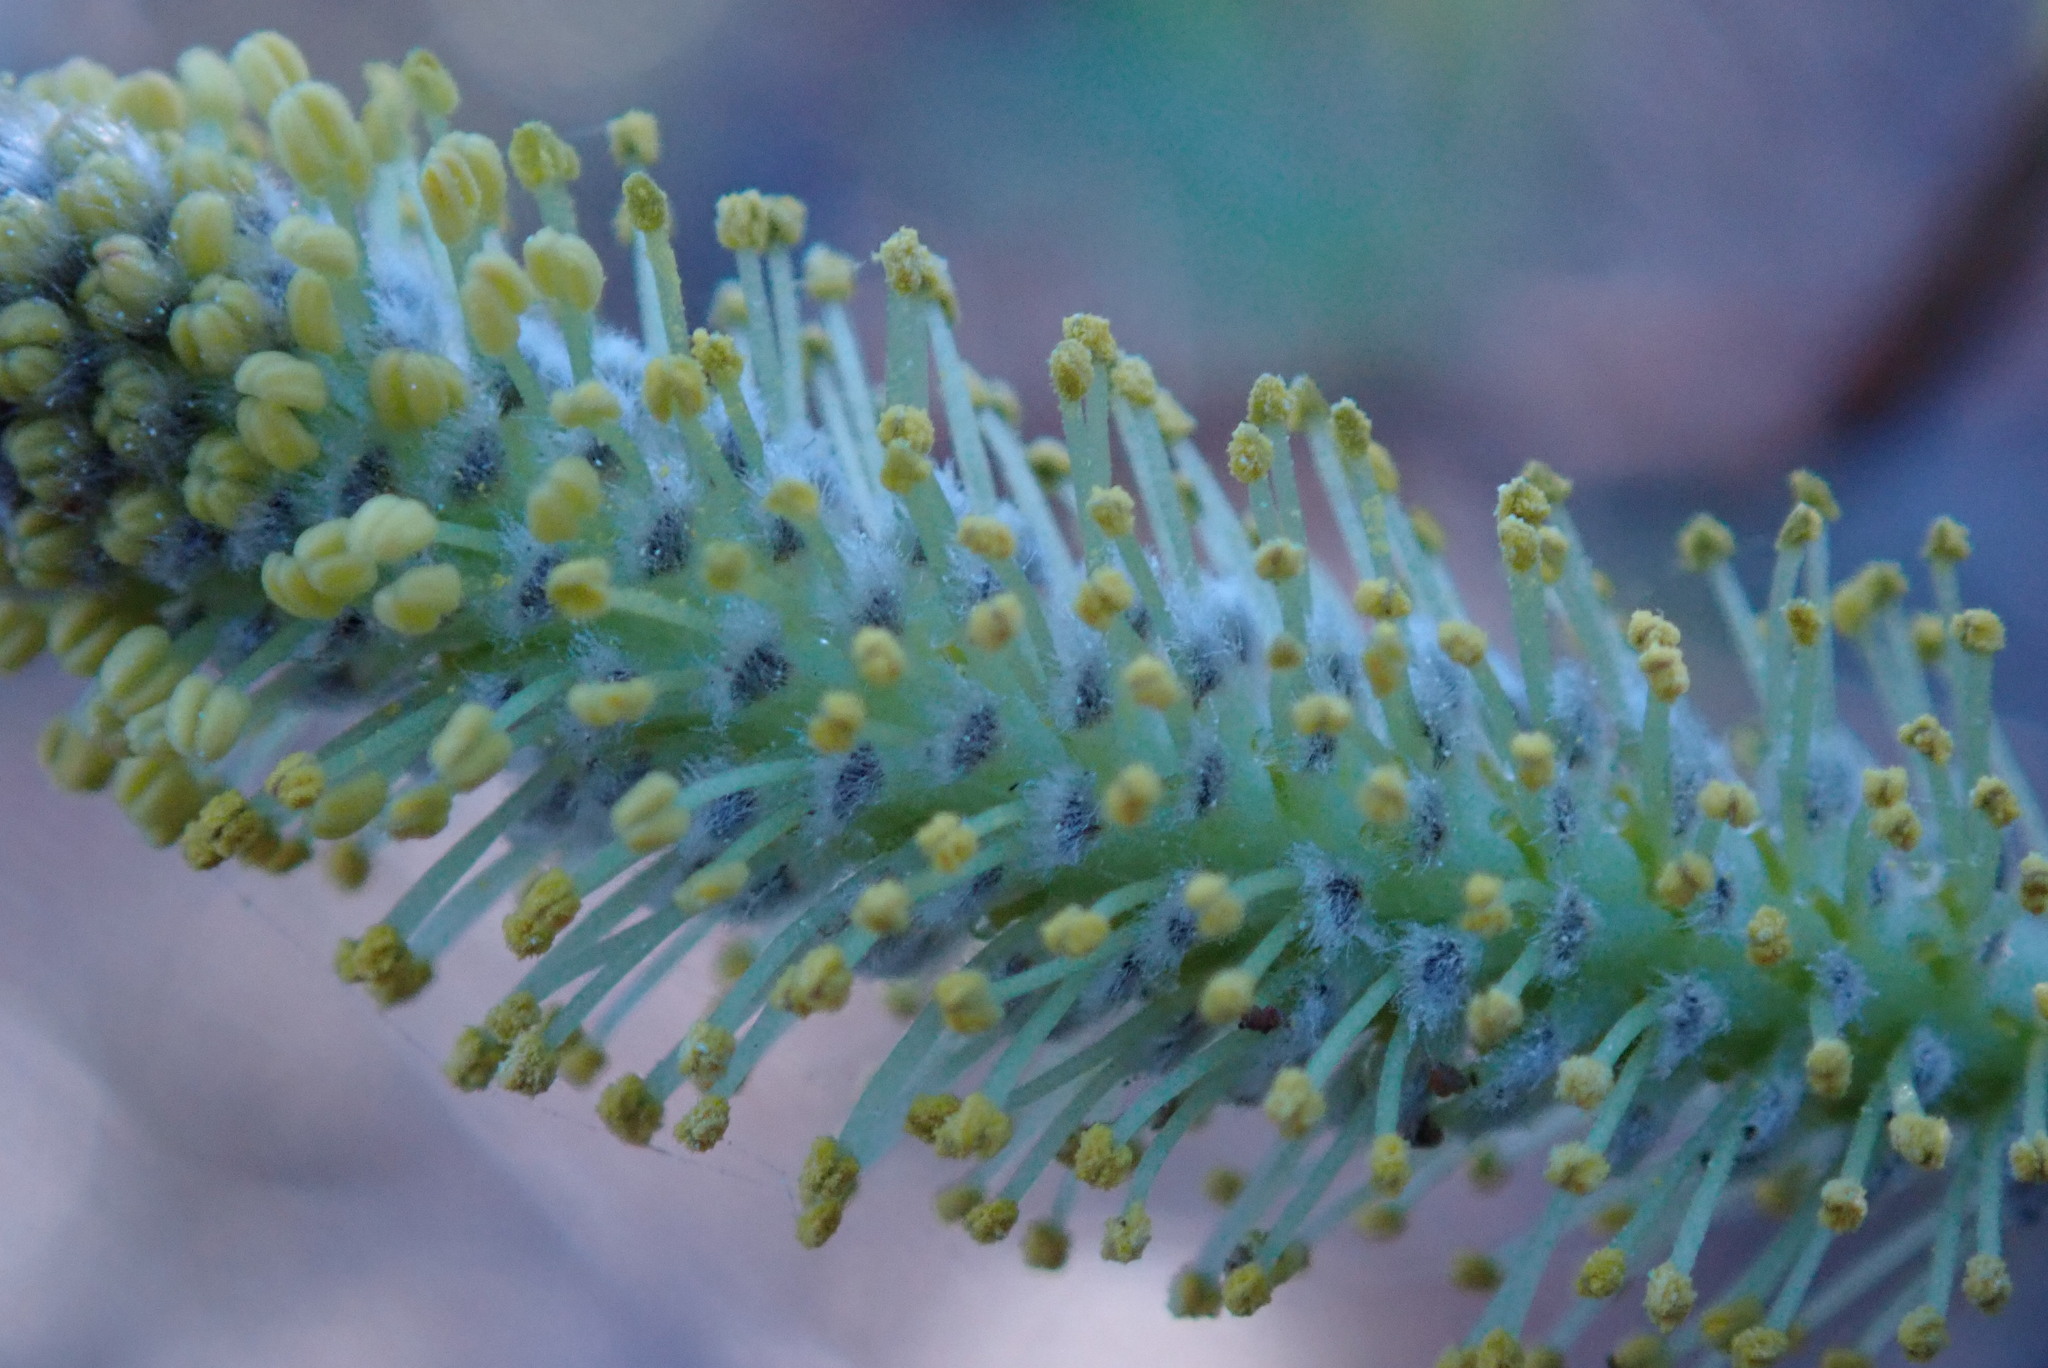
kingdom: Plantae
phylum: Tracheophyta
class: Magnoliopsida
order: Malpighiales
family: Salicaceae
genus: Salix
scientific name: Salix lasiolepis
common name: Arroyo willow
